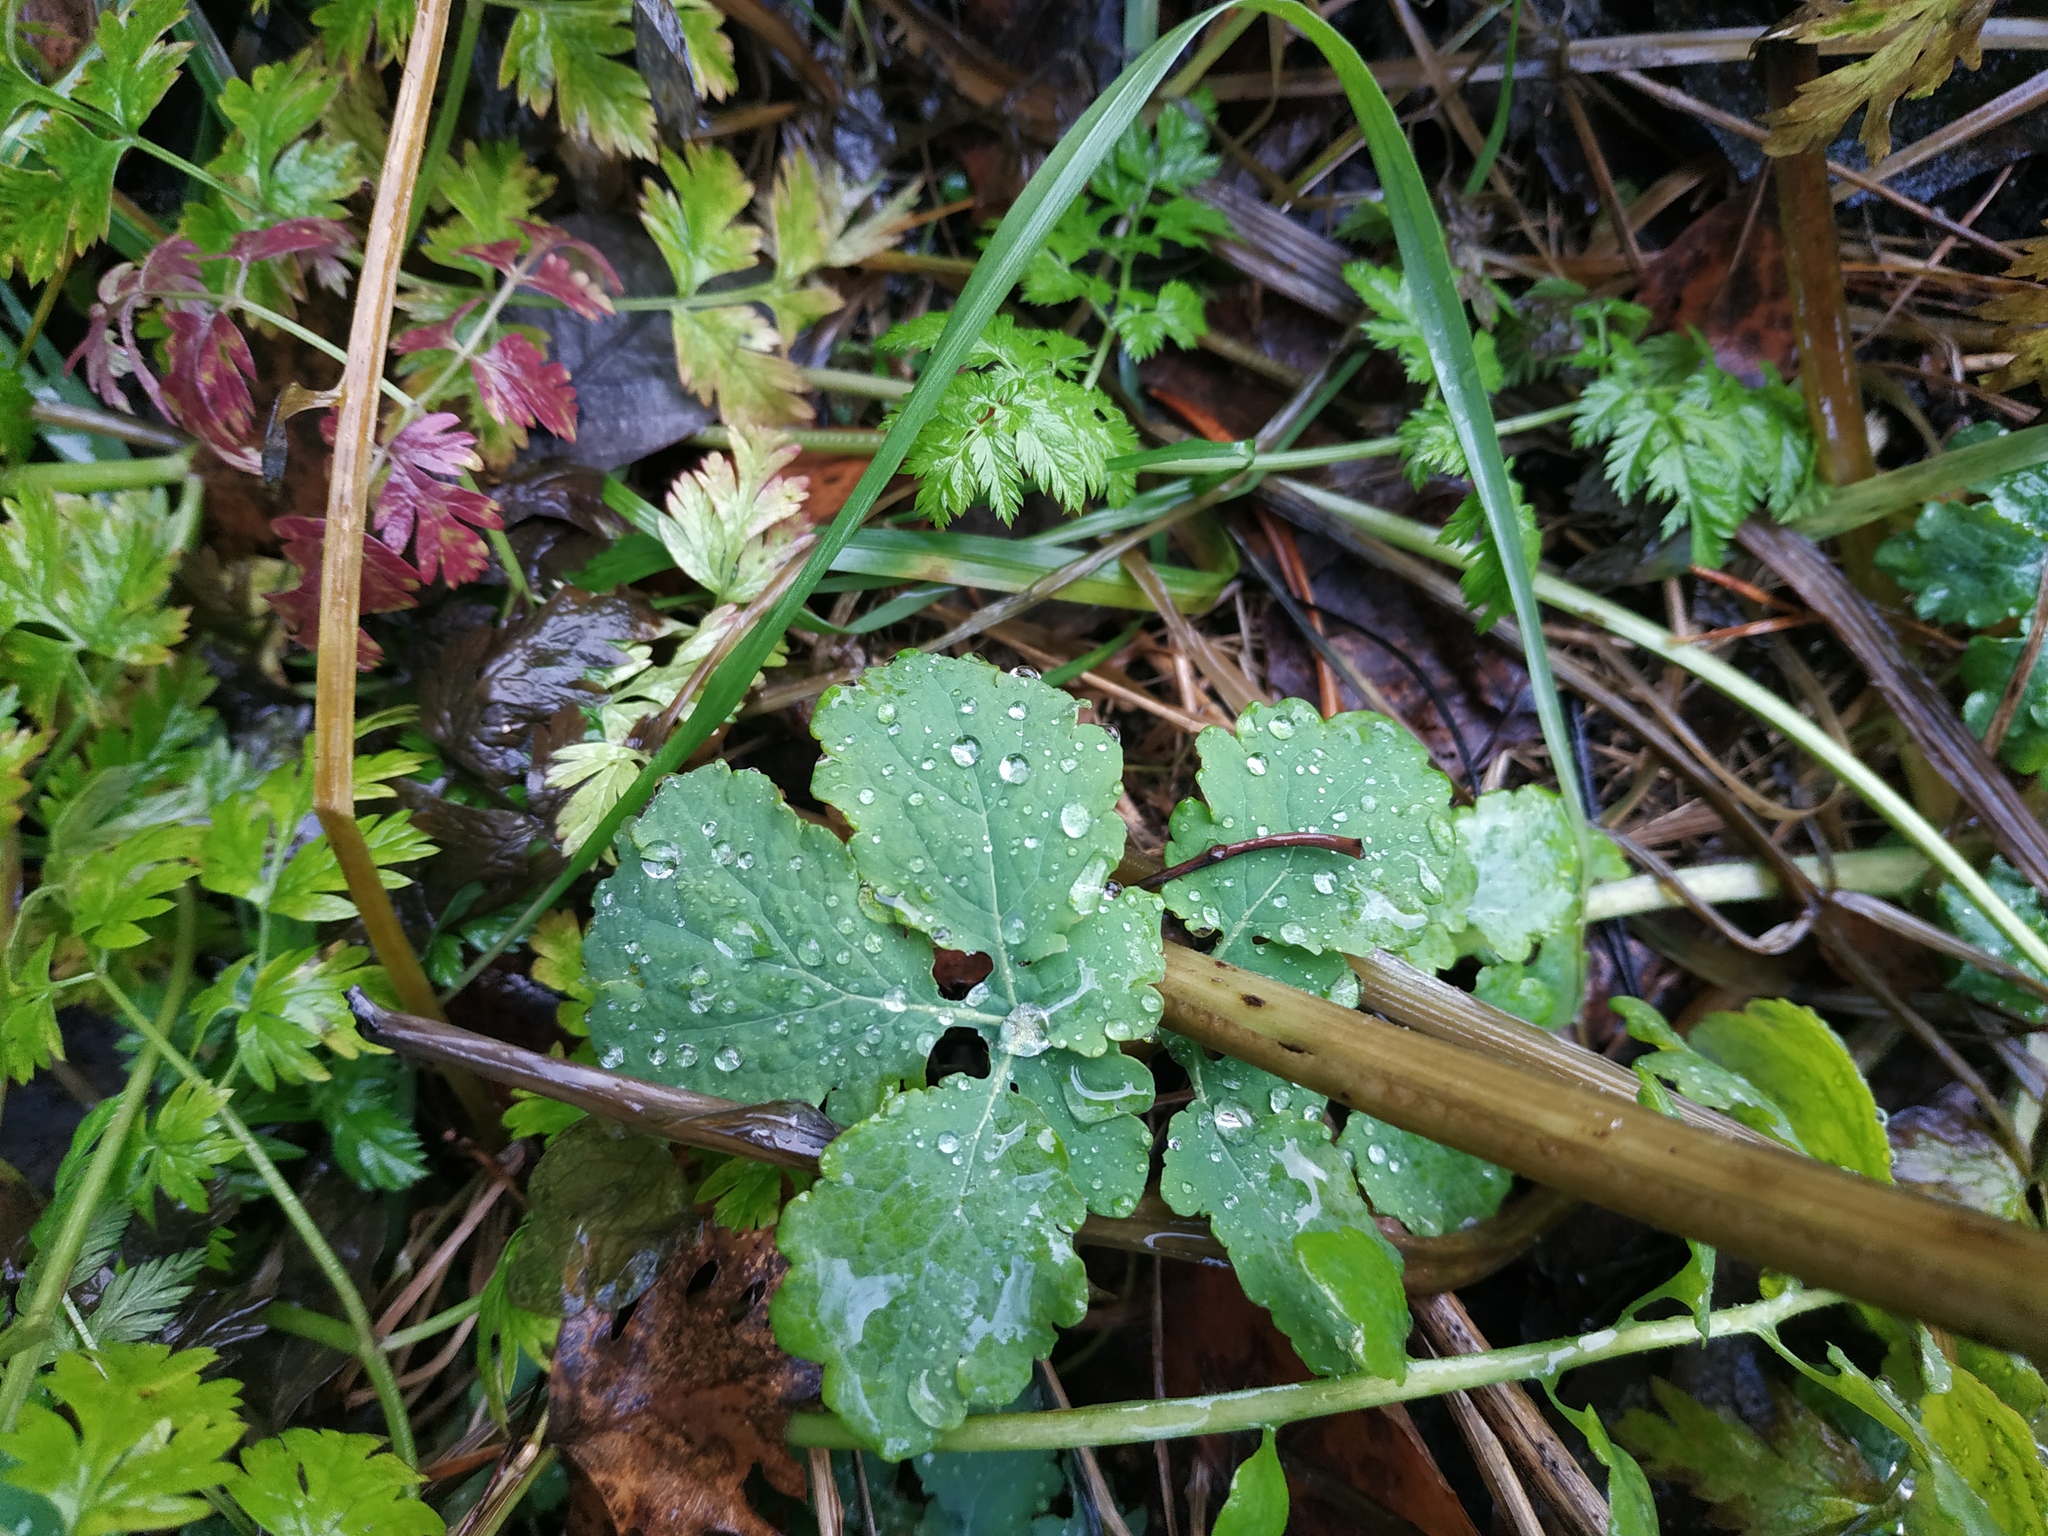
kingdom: Plantae
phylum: Tracheophyta
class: Magnoliopsida
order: Ranunculales
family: Papaveraceae
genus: Chelidonium
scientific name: Chelidonium majus
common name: Greater celandine
